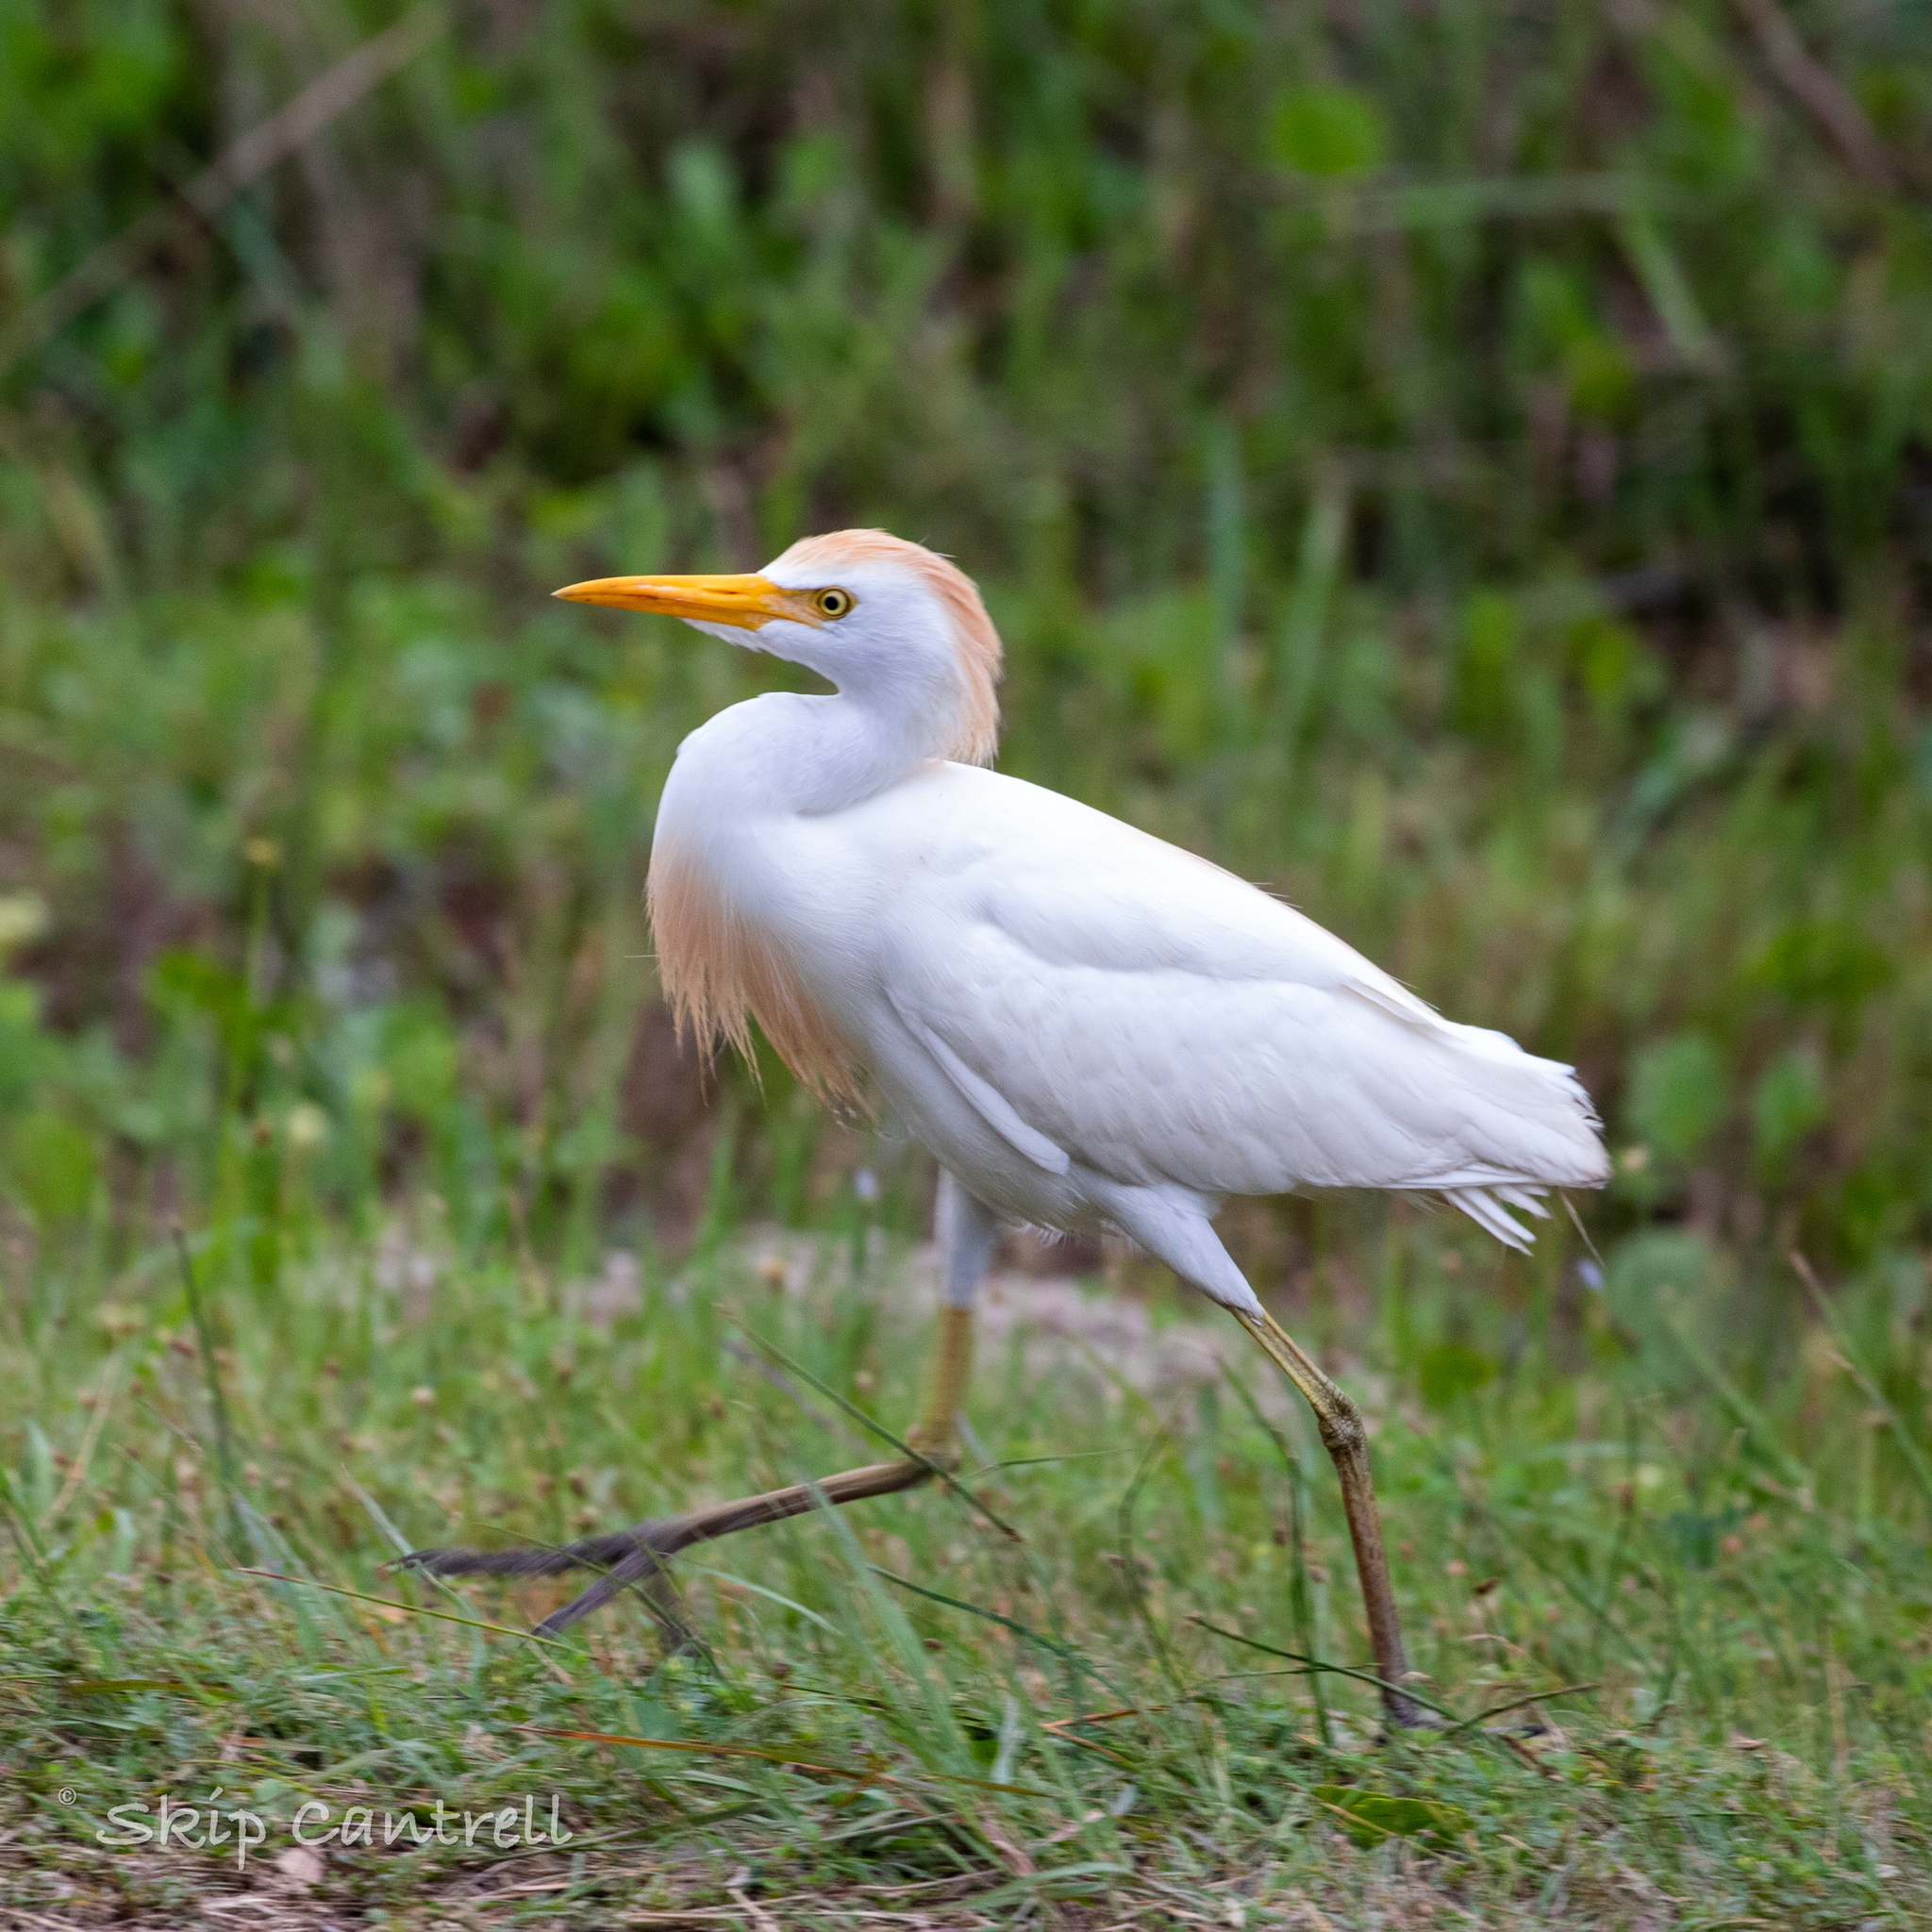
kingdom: Animalia
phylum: Chordata
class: Aves
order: Pelecaniformes
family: Ardeidae
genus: Bubulcus
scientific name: Bubulcus ibis
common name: Cattle egret
